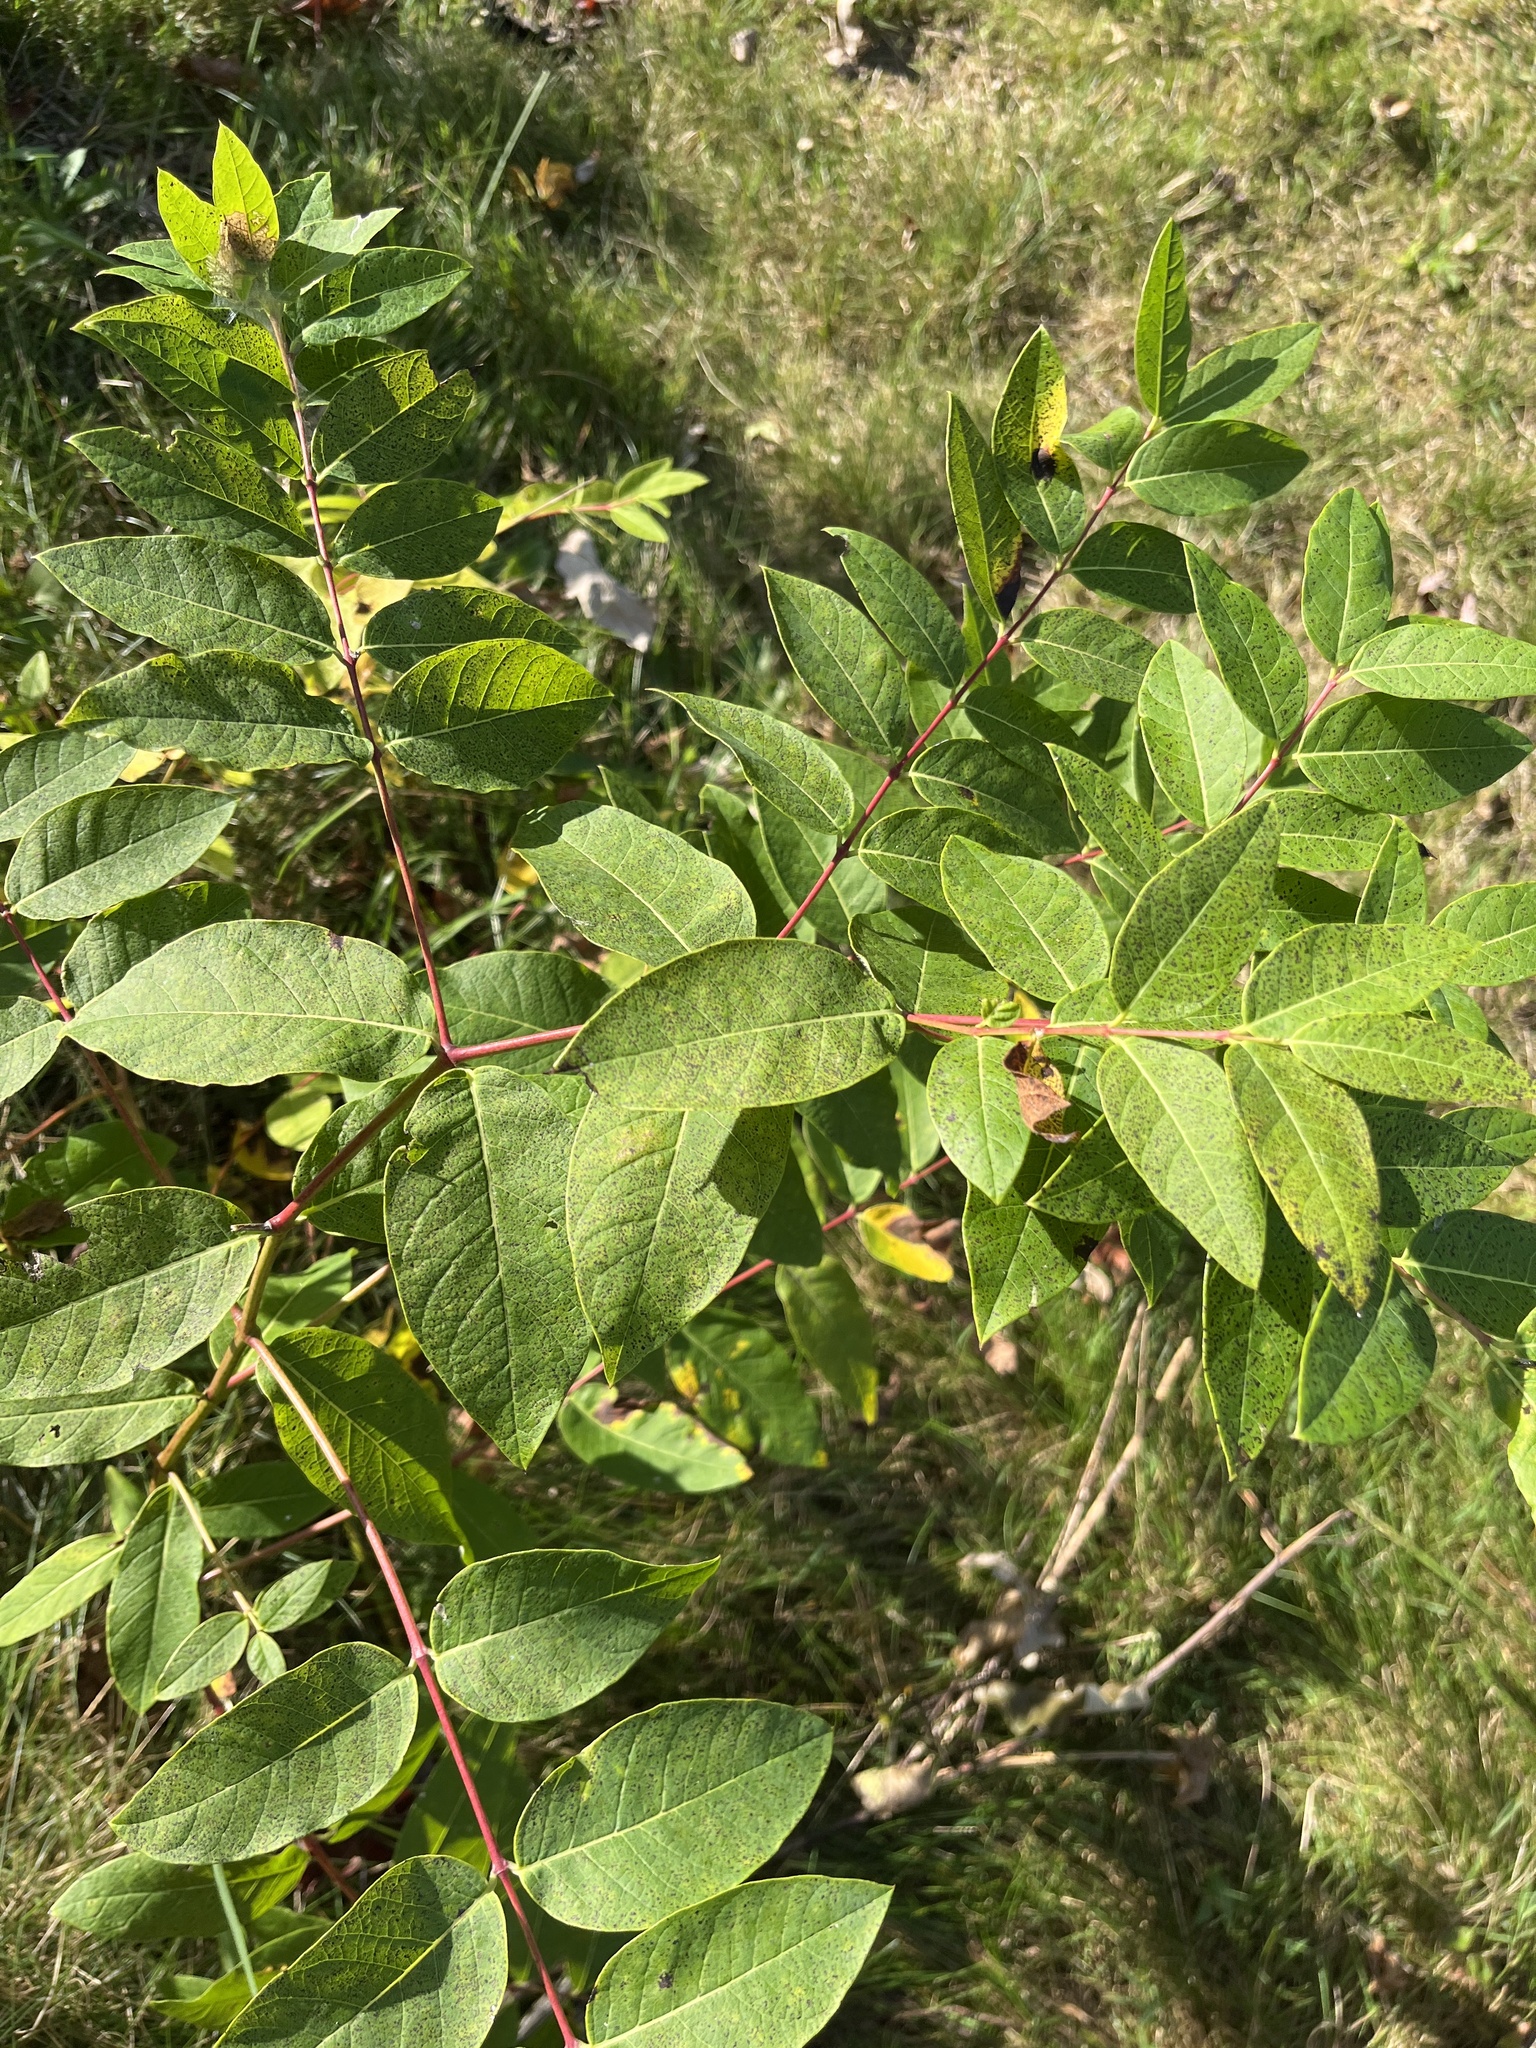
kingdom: Plantae
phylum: Tracheophyta
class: Magnoliopsida
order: Gentianales
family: Apocynaceae
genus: Apocynum
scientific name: Apocynum androsaemifolium
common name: Spreading dogbane
